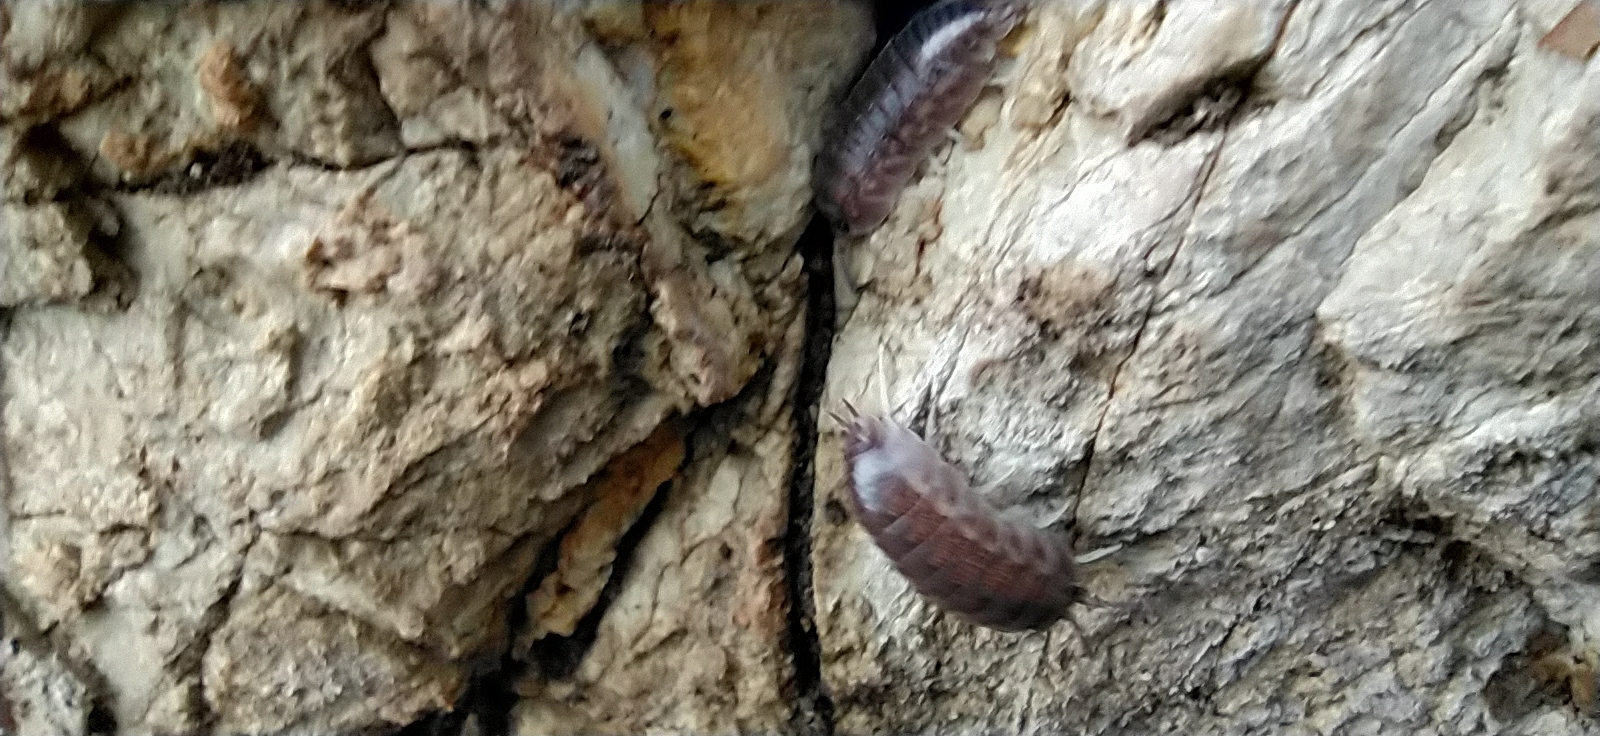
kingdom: Animalia
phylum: Arthropoda
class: Malacostraca
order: Isopoda
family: Cylisticidae
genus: Cylisticus
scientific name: Cylisticus convexus
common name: Curly woodlouse
